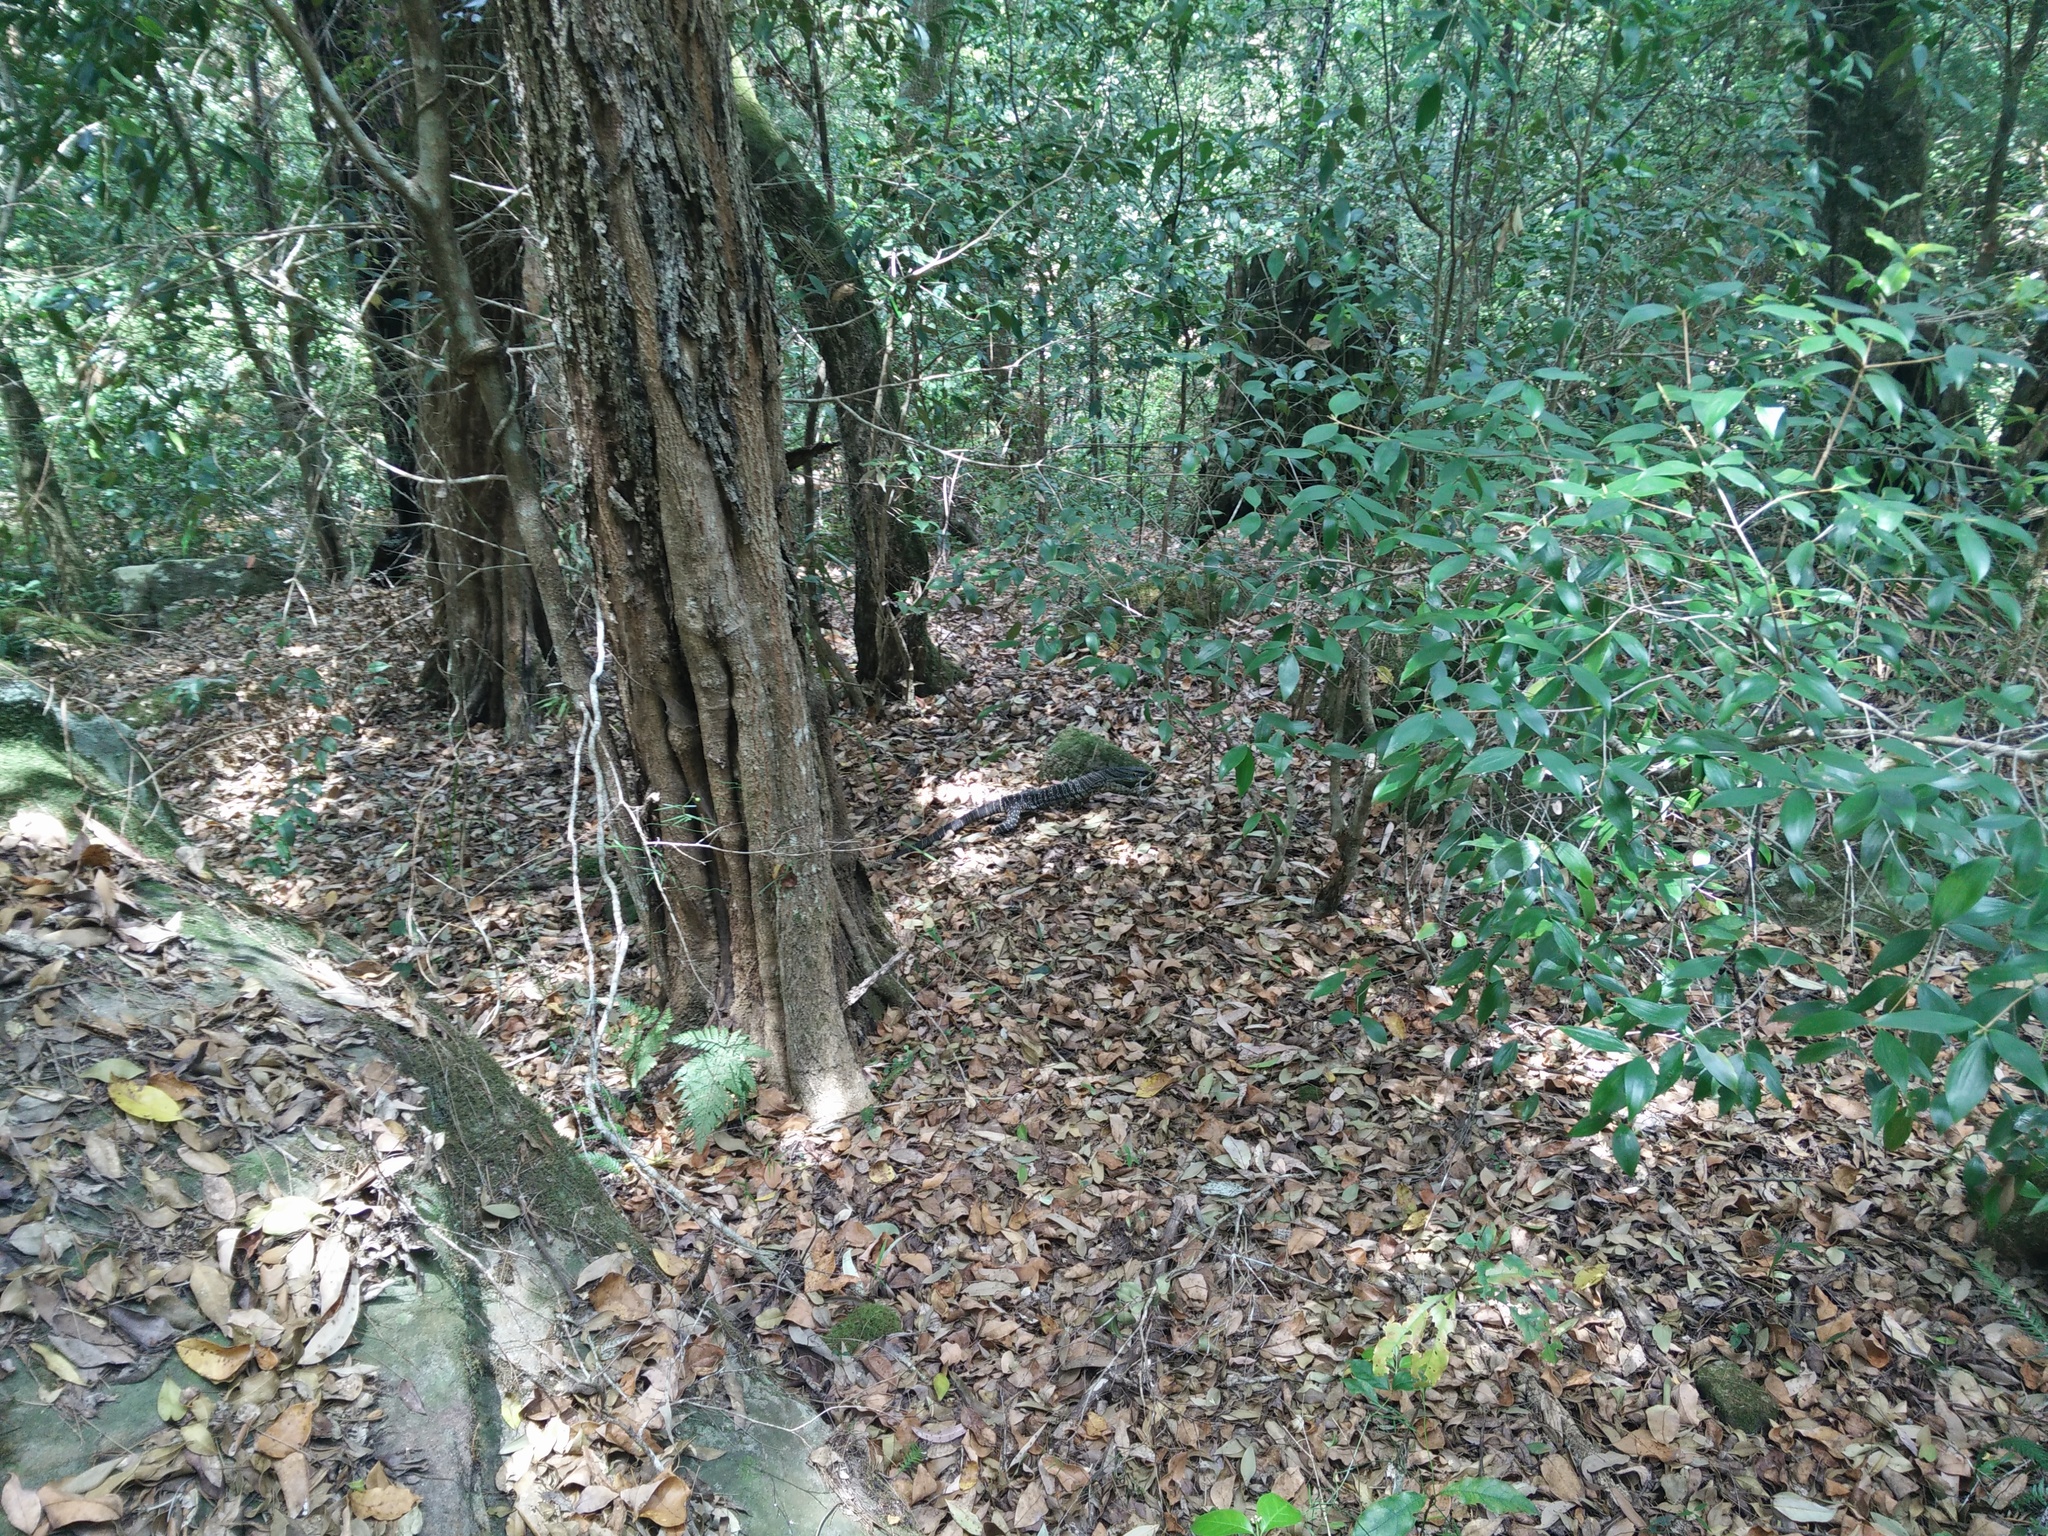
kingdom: Animalia
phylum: Chordata
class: Squamata
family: Varanidae
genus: Varanus
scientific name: Varanus varius
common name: Lace monitor
